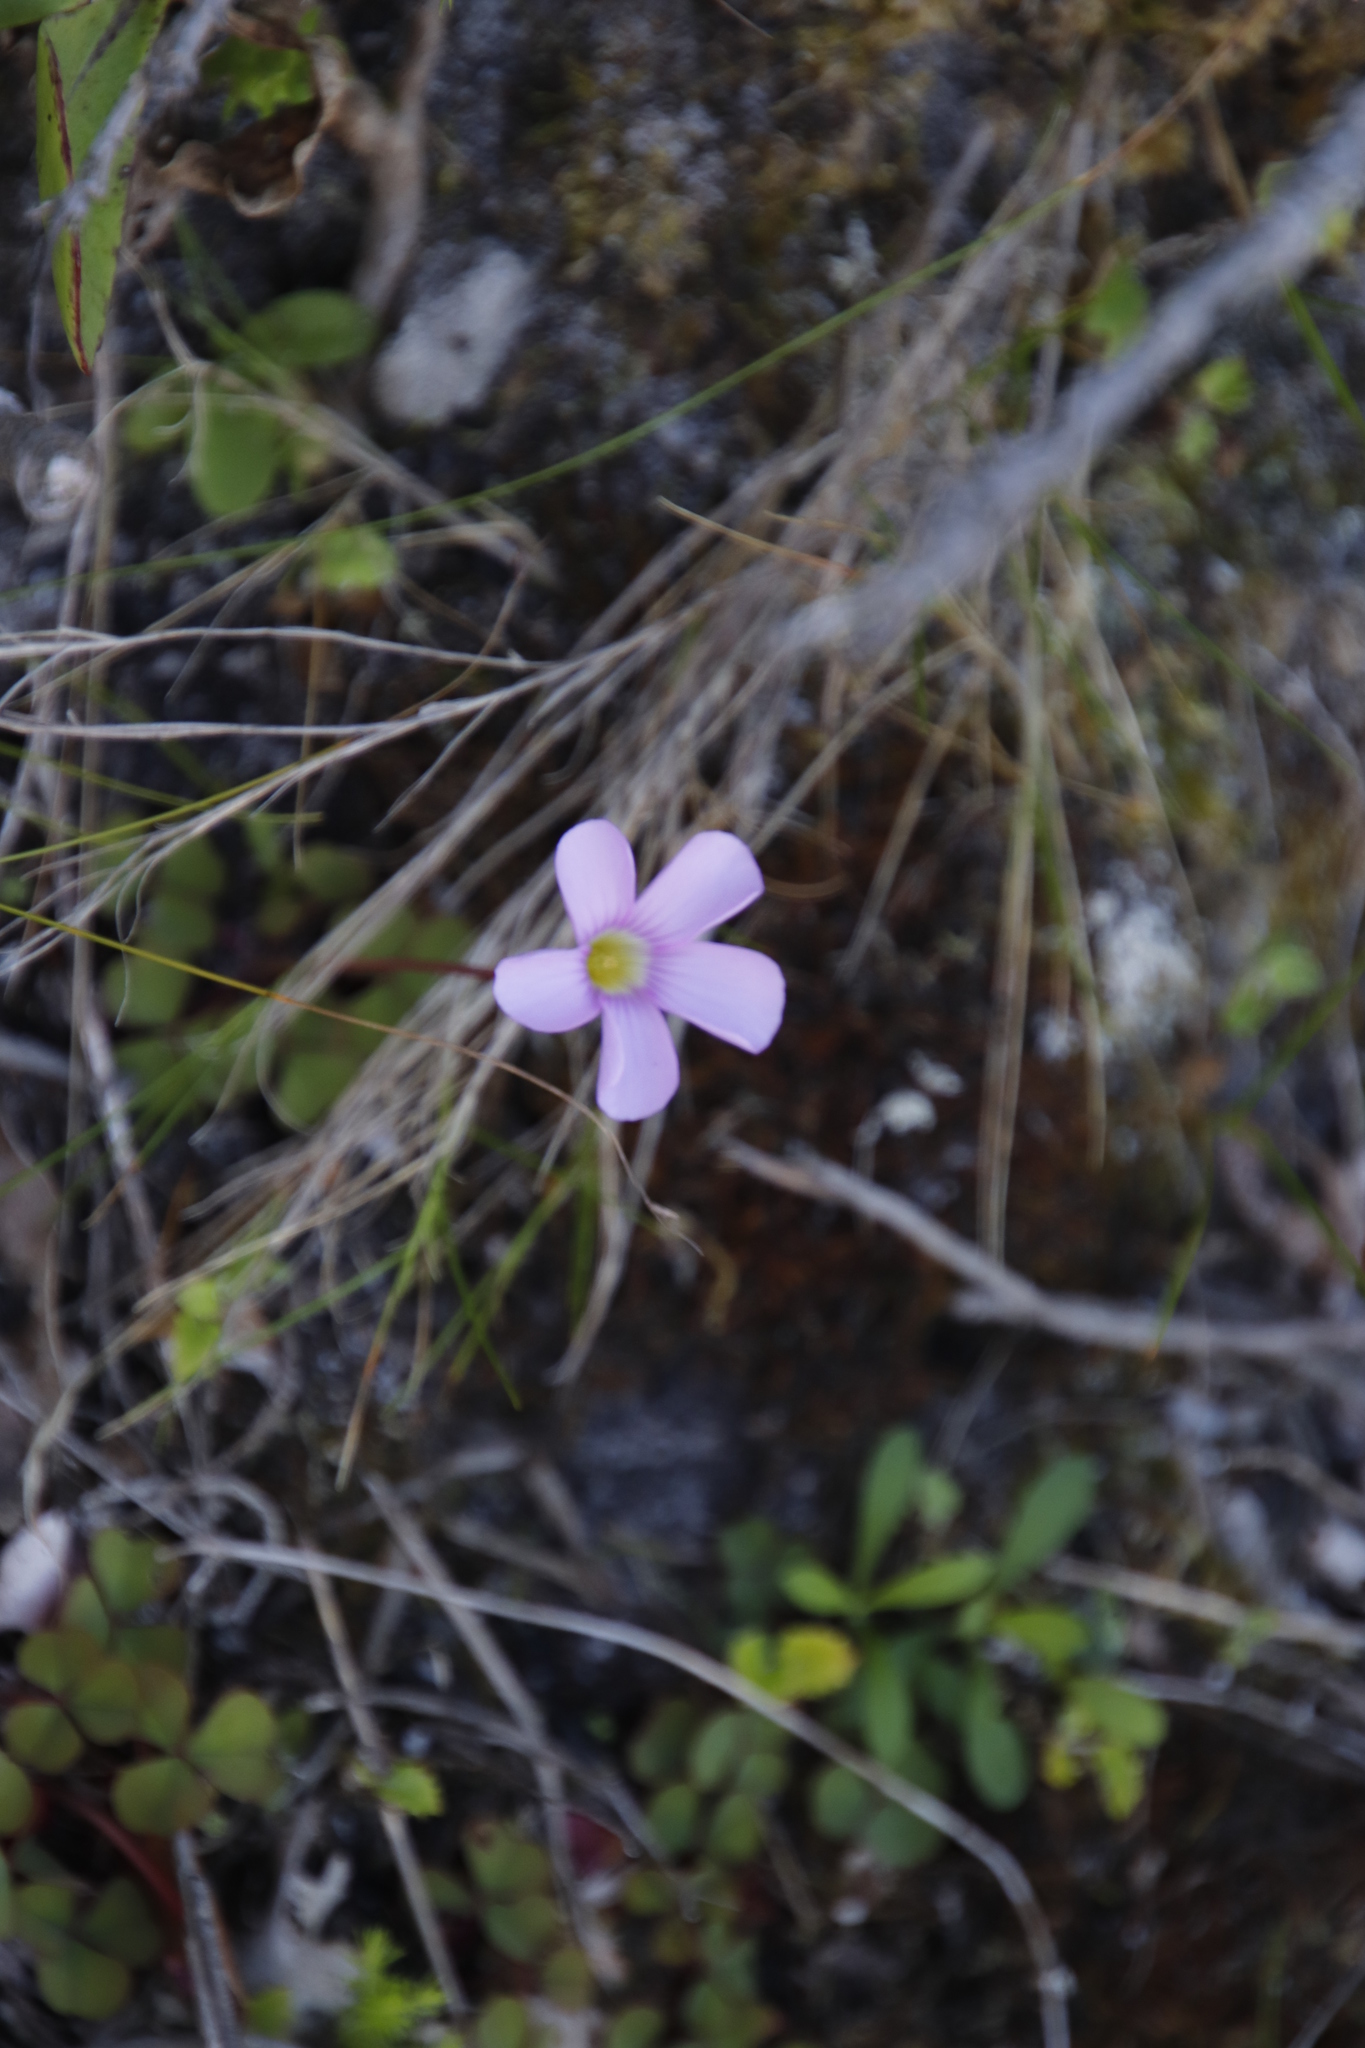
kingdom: Plantae
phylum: Tracheophyta
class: Magnoliopsida
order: Oxalidales
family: Oxalidaceae
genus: Oxalis
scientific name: Oxalis commutata
